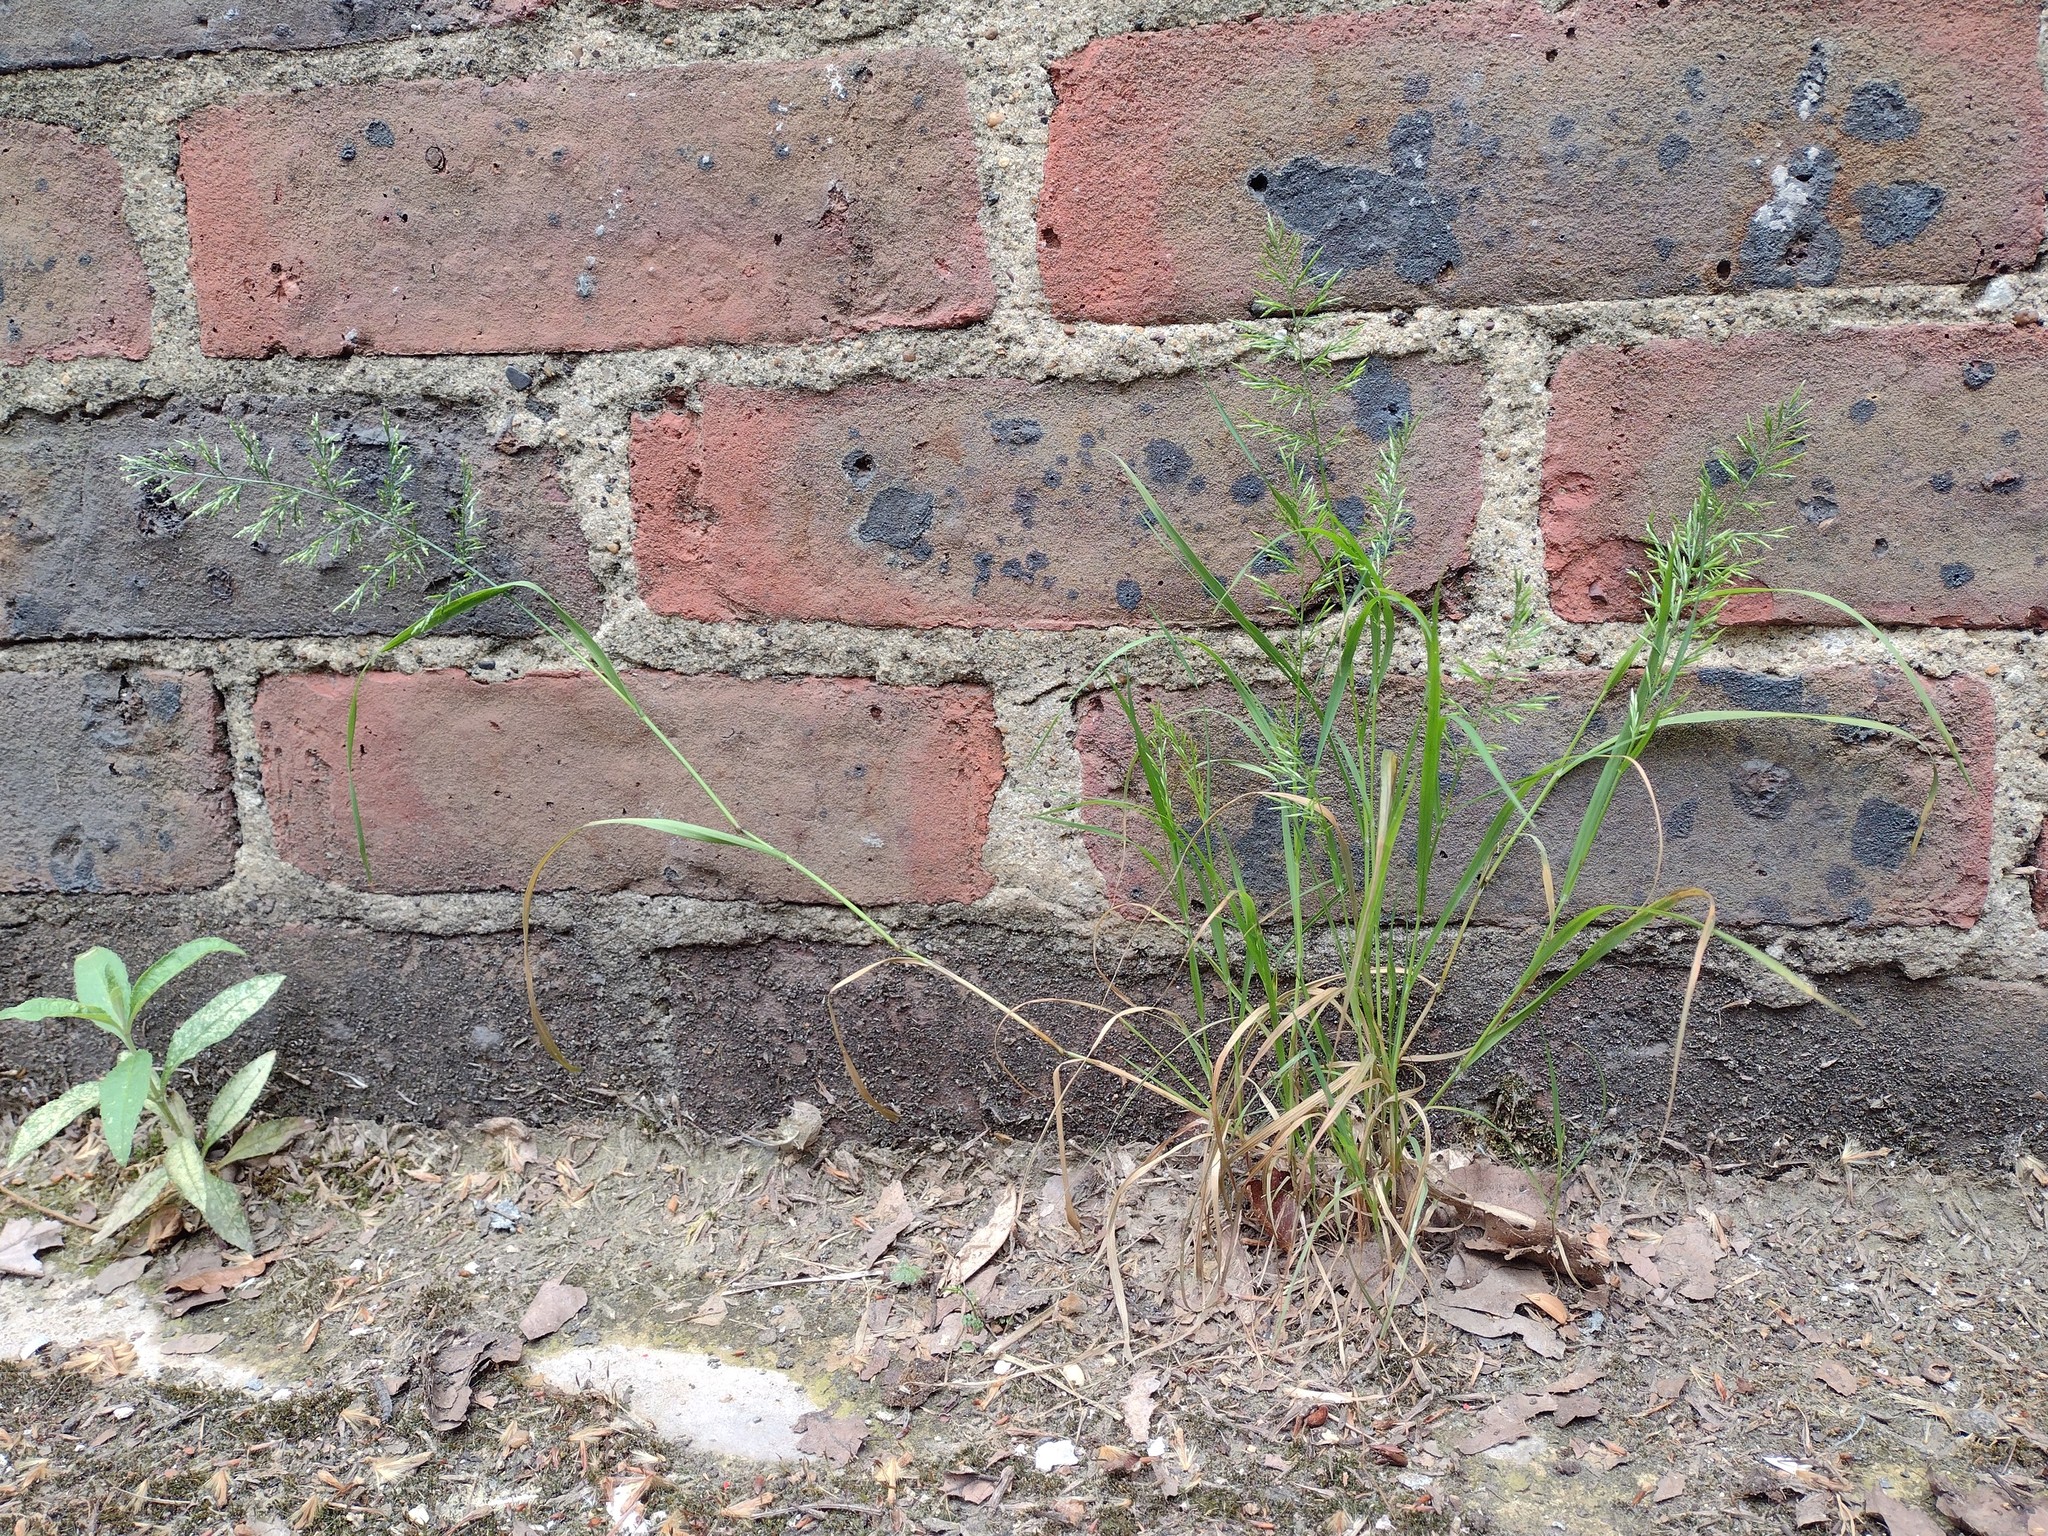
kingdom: Plantae
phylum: Tracheophyta
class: Liliopsida
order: Poales
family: Poaceae
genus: Catapodium
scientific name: Catapodium rigidum
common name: Fern-grass
